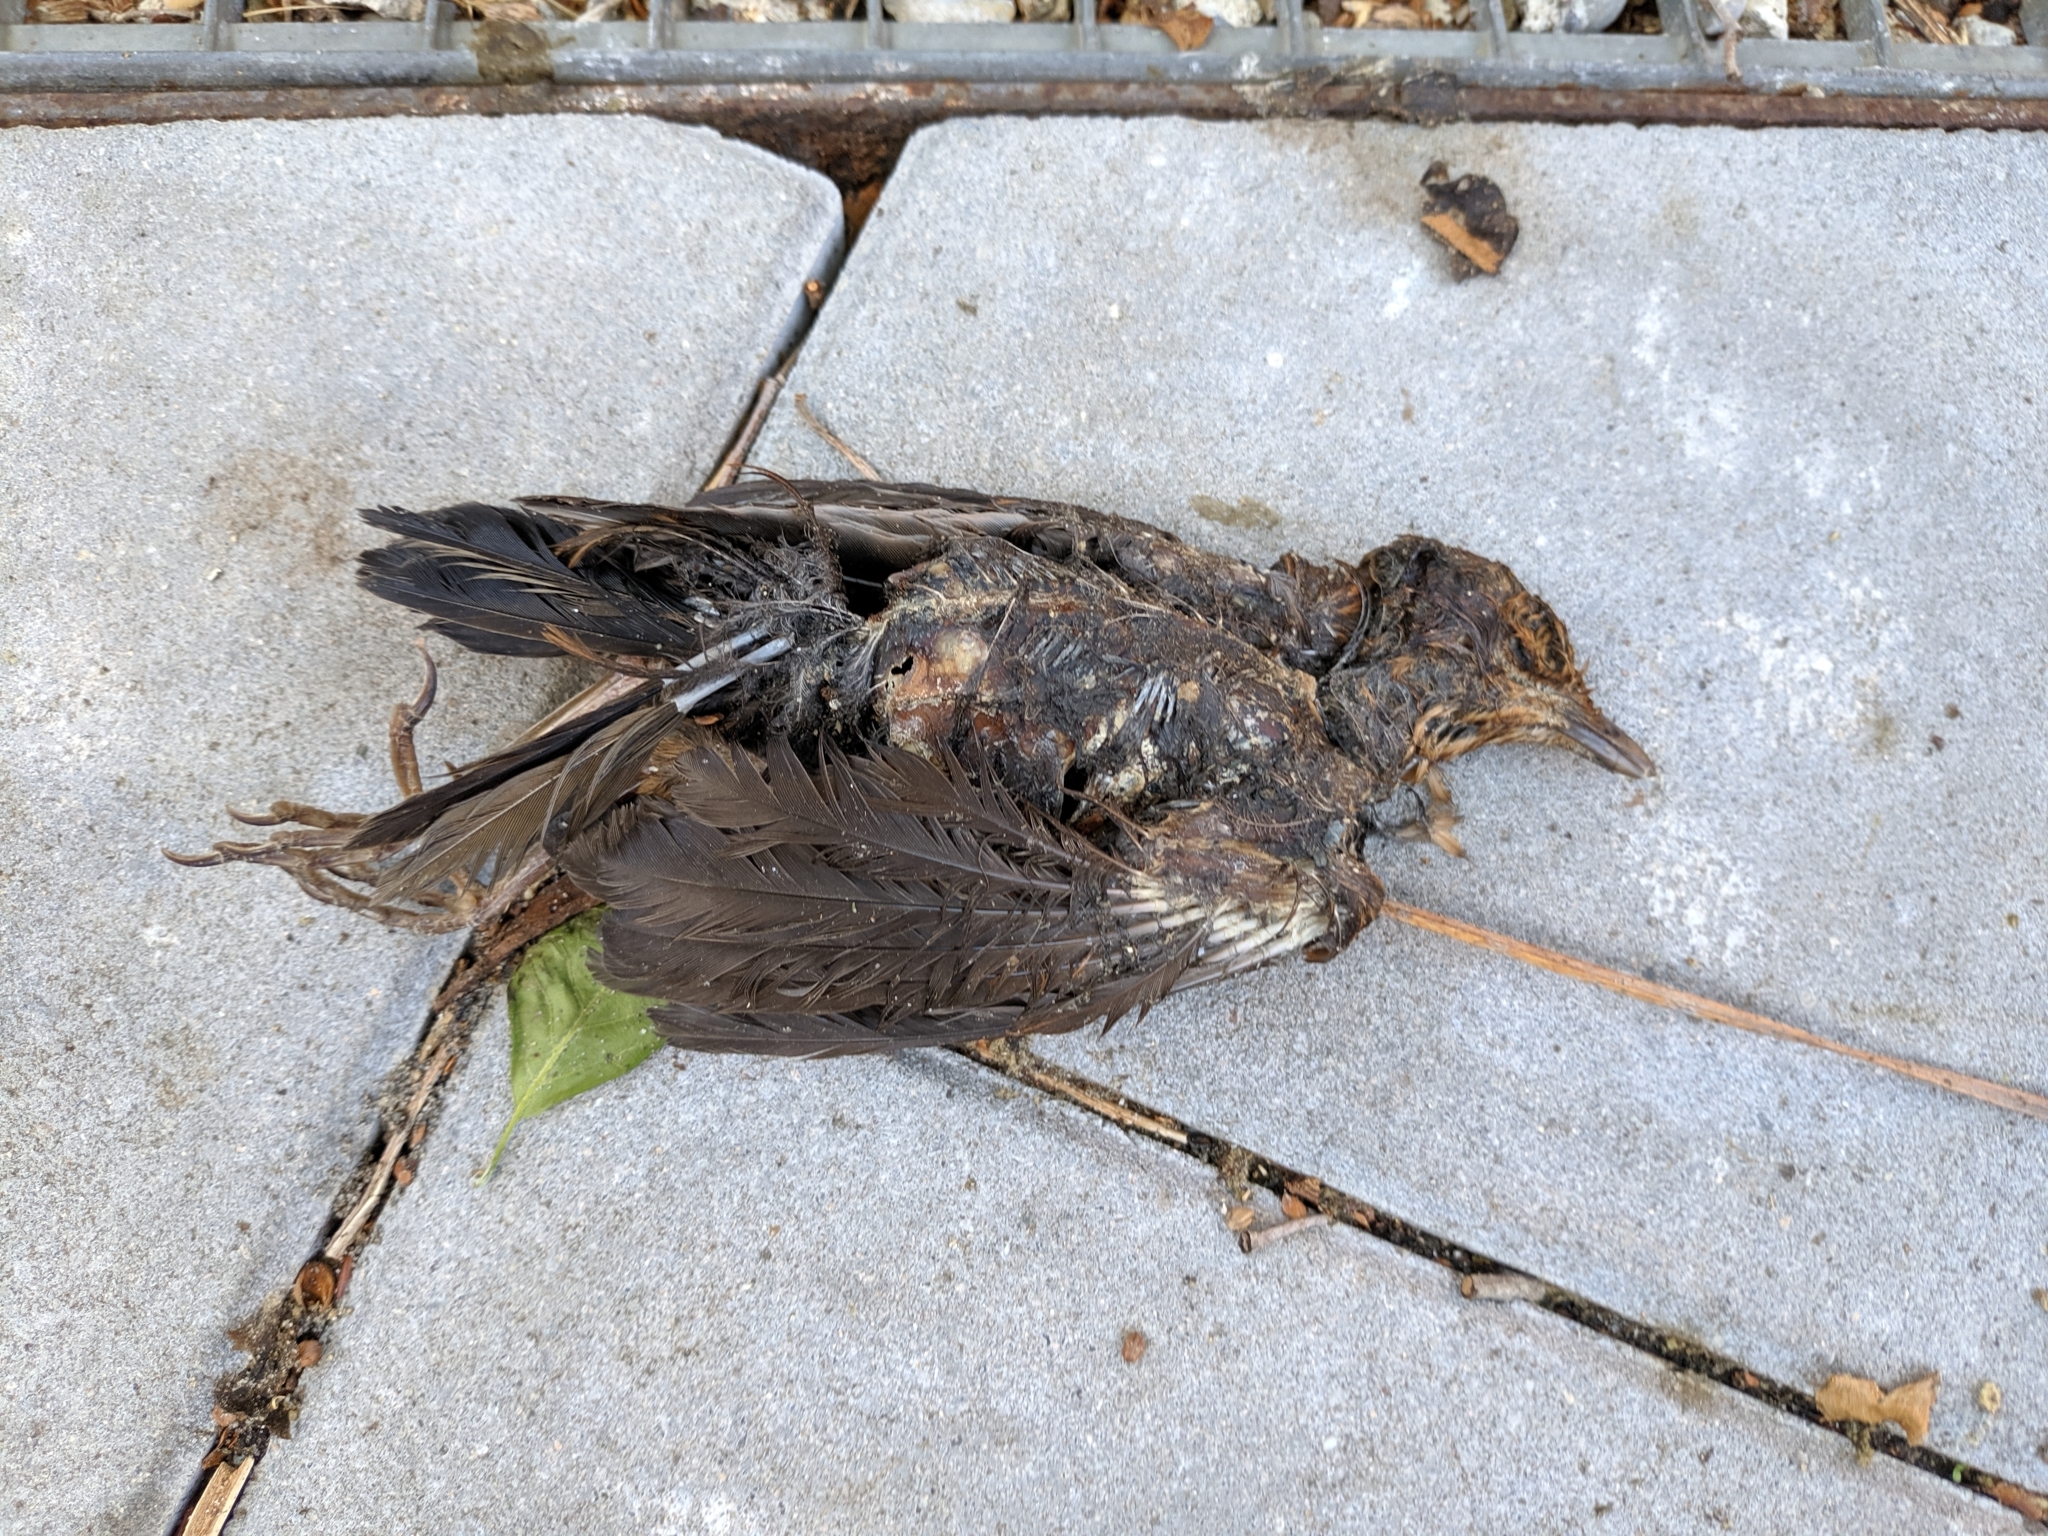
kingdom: Animalia
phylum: Chordata
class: Aves
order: Passeriformes
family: Turdidae
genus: Turdus
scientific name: Turdus merula
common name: Common blackbird
